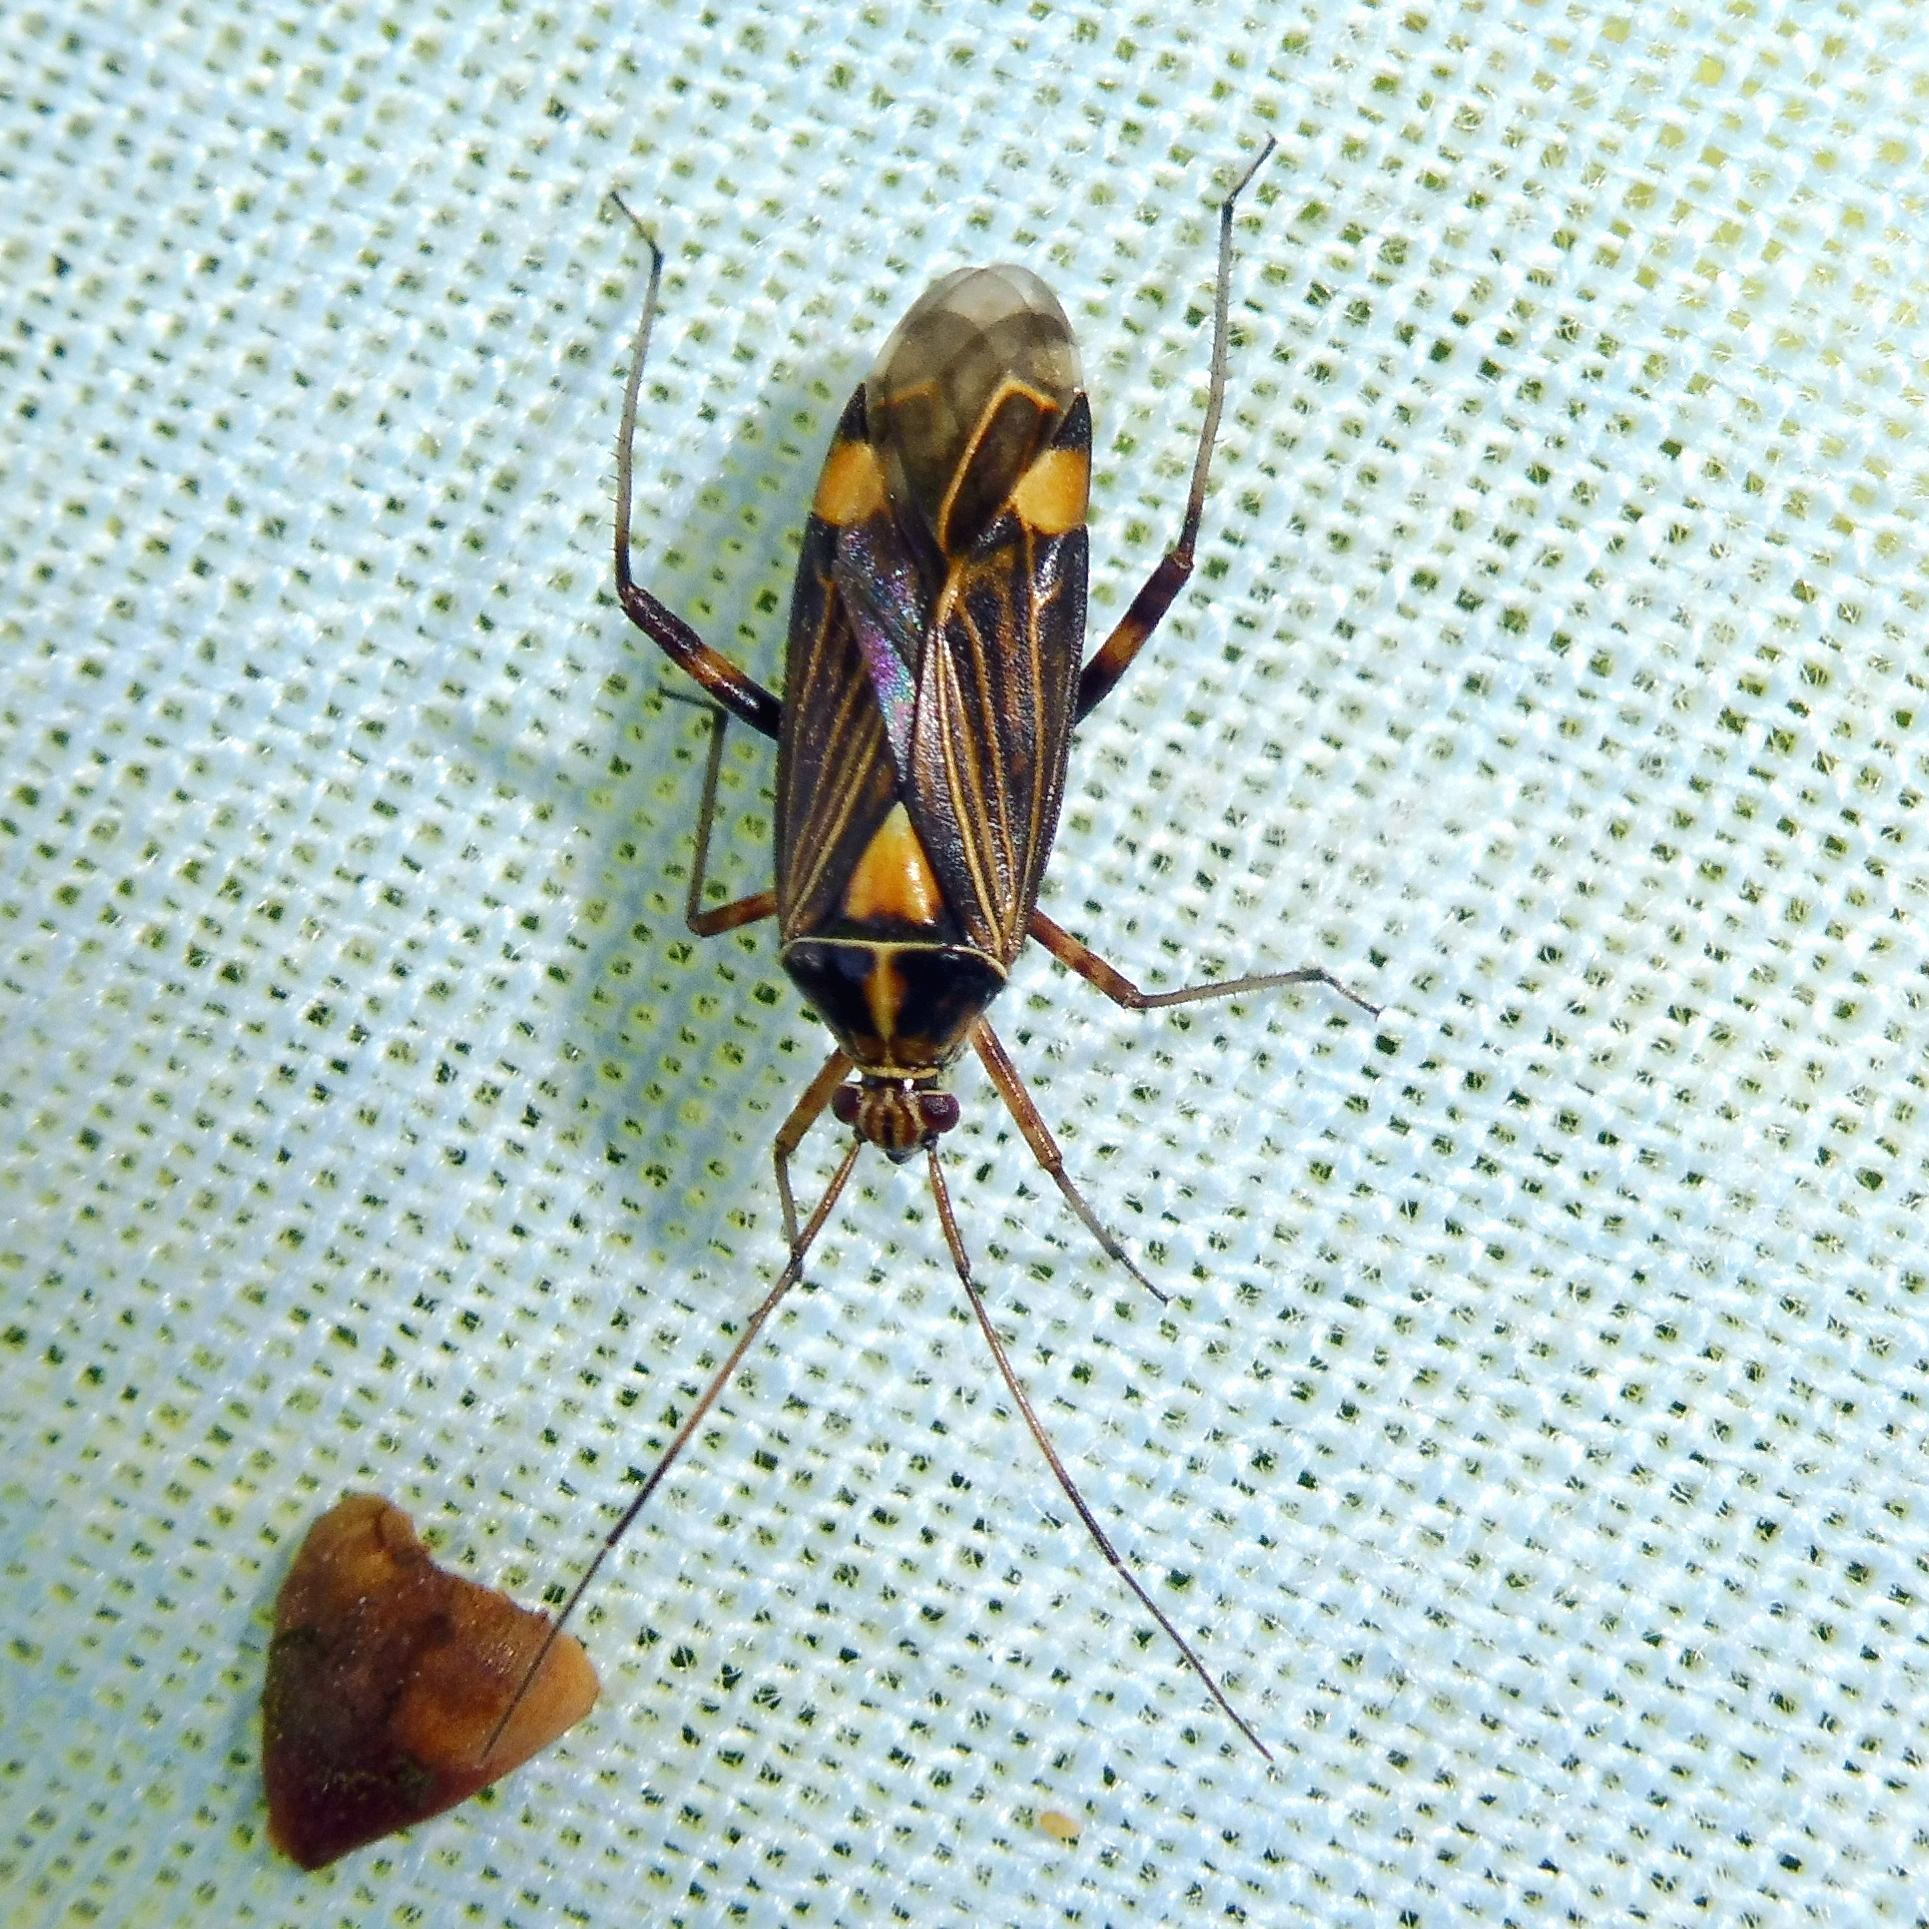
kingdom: Animalia
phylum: Arthropoda
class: Insecta
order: Hemiptera
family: Miridae
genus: Rhabdomiris
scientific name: Rhabdomiris striatellus
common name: Plant bug
